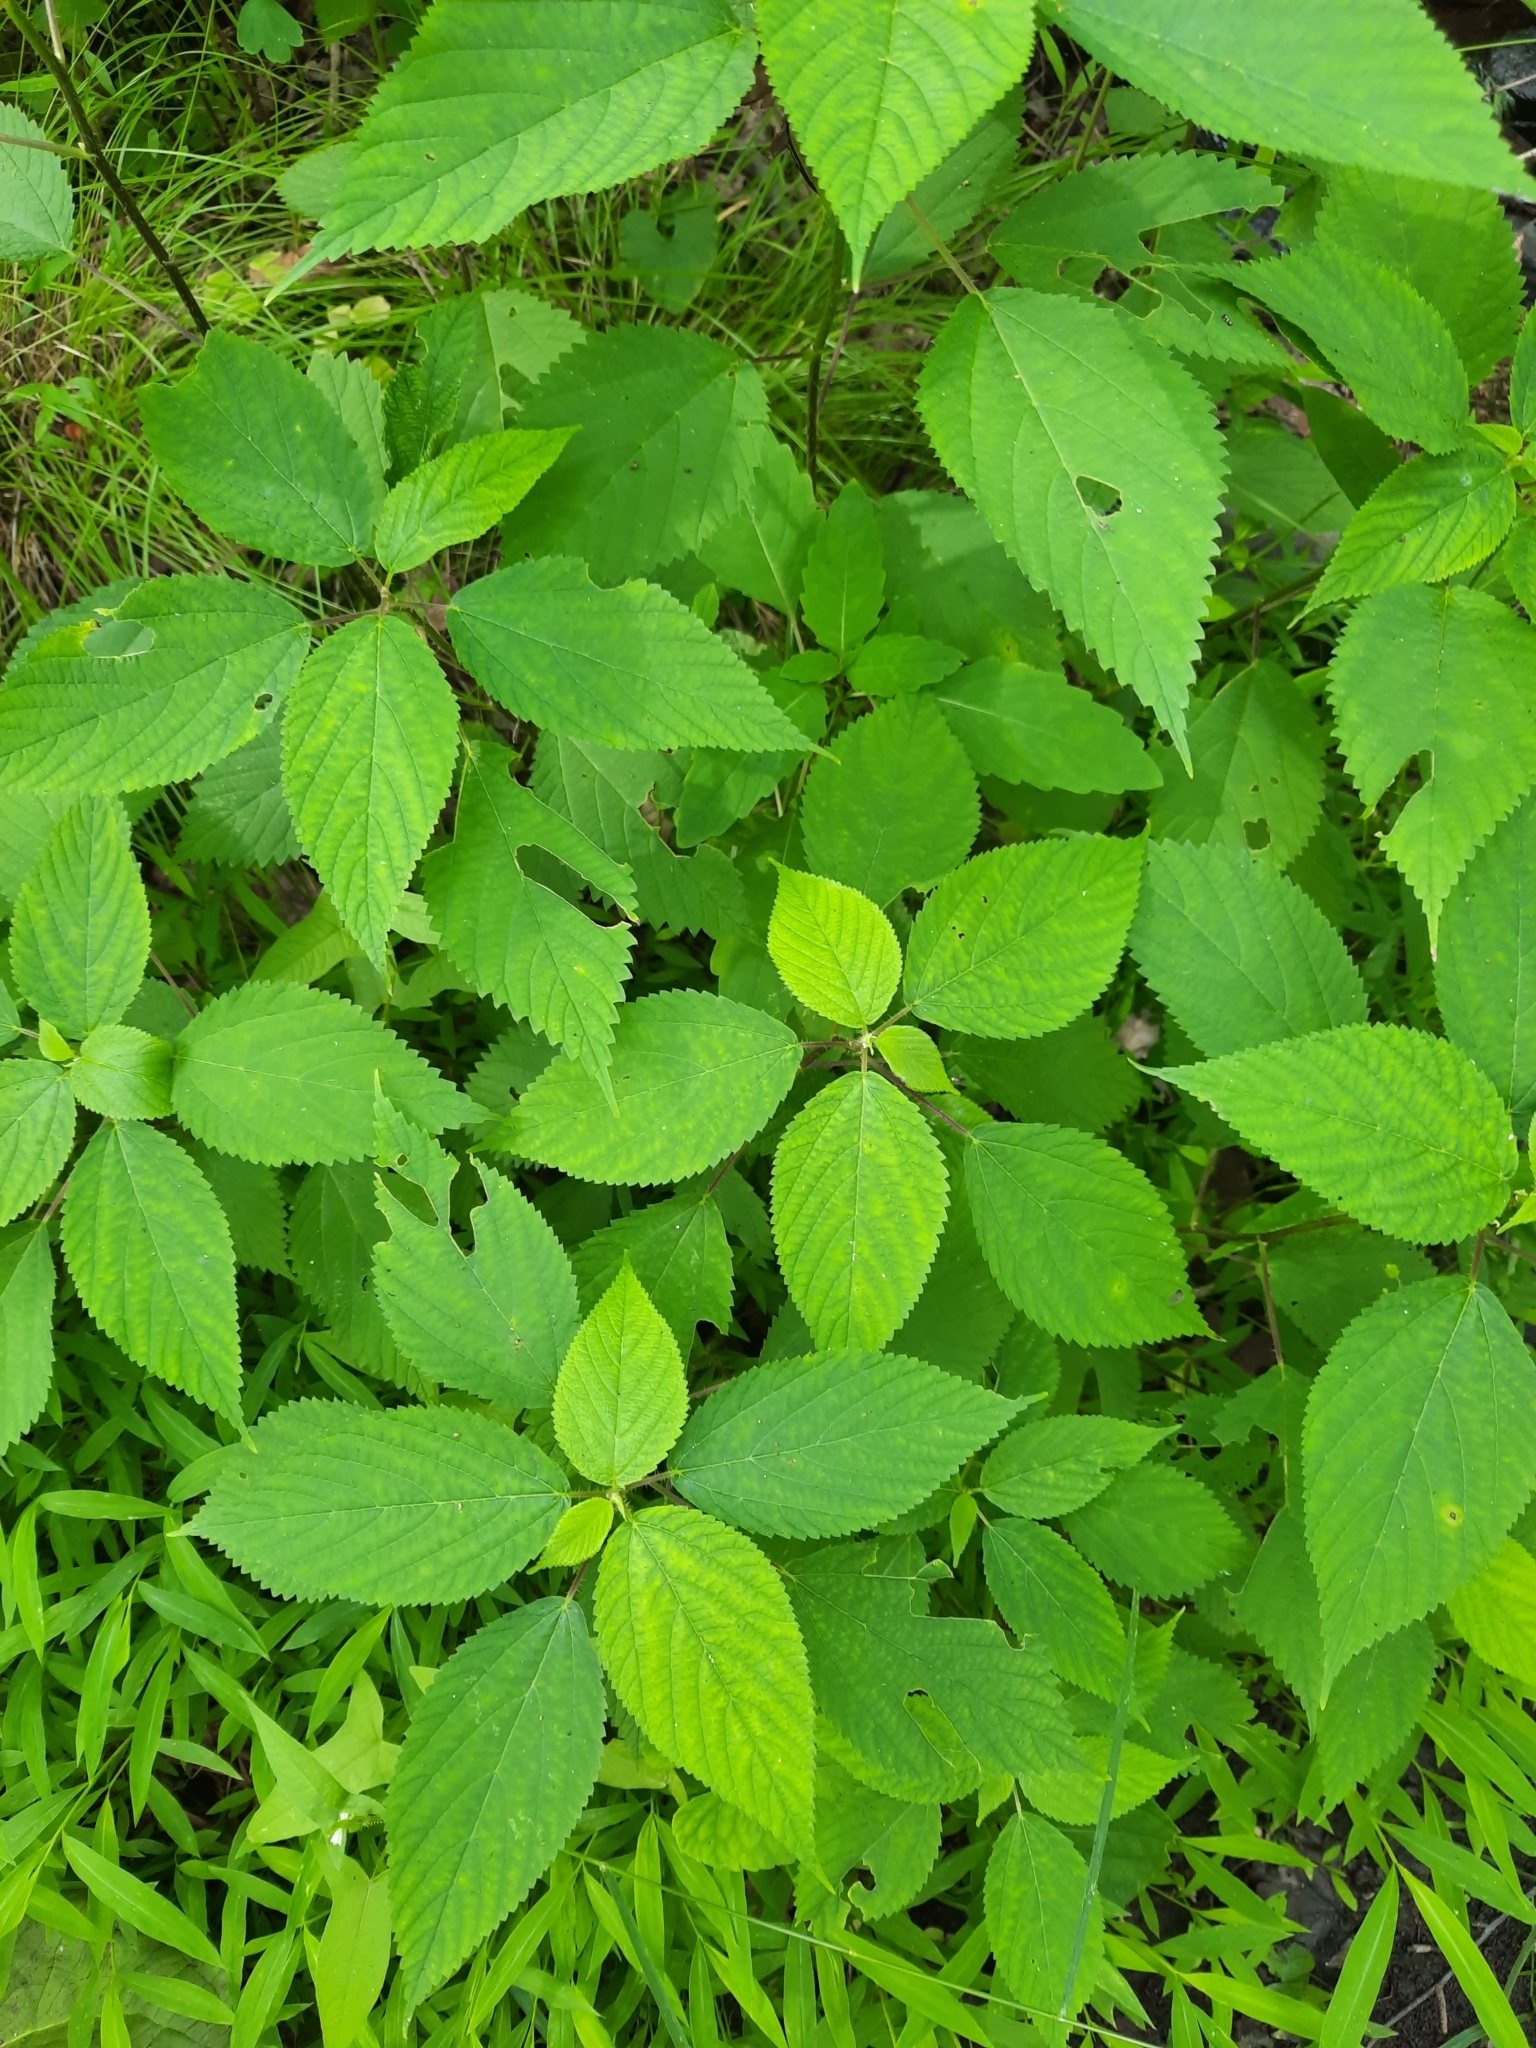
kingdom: Plantae
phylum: Tracheophyta
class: Magnoliopsida
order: Rosales
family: Urticaceae
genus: Laportea
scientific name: Laportea canadensis
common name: Canada nettle
